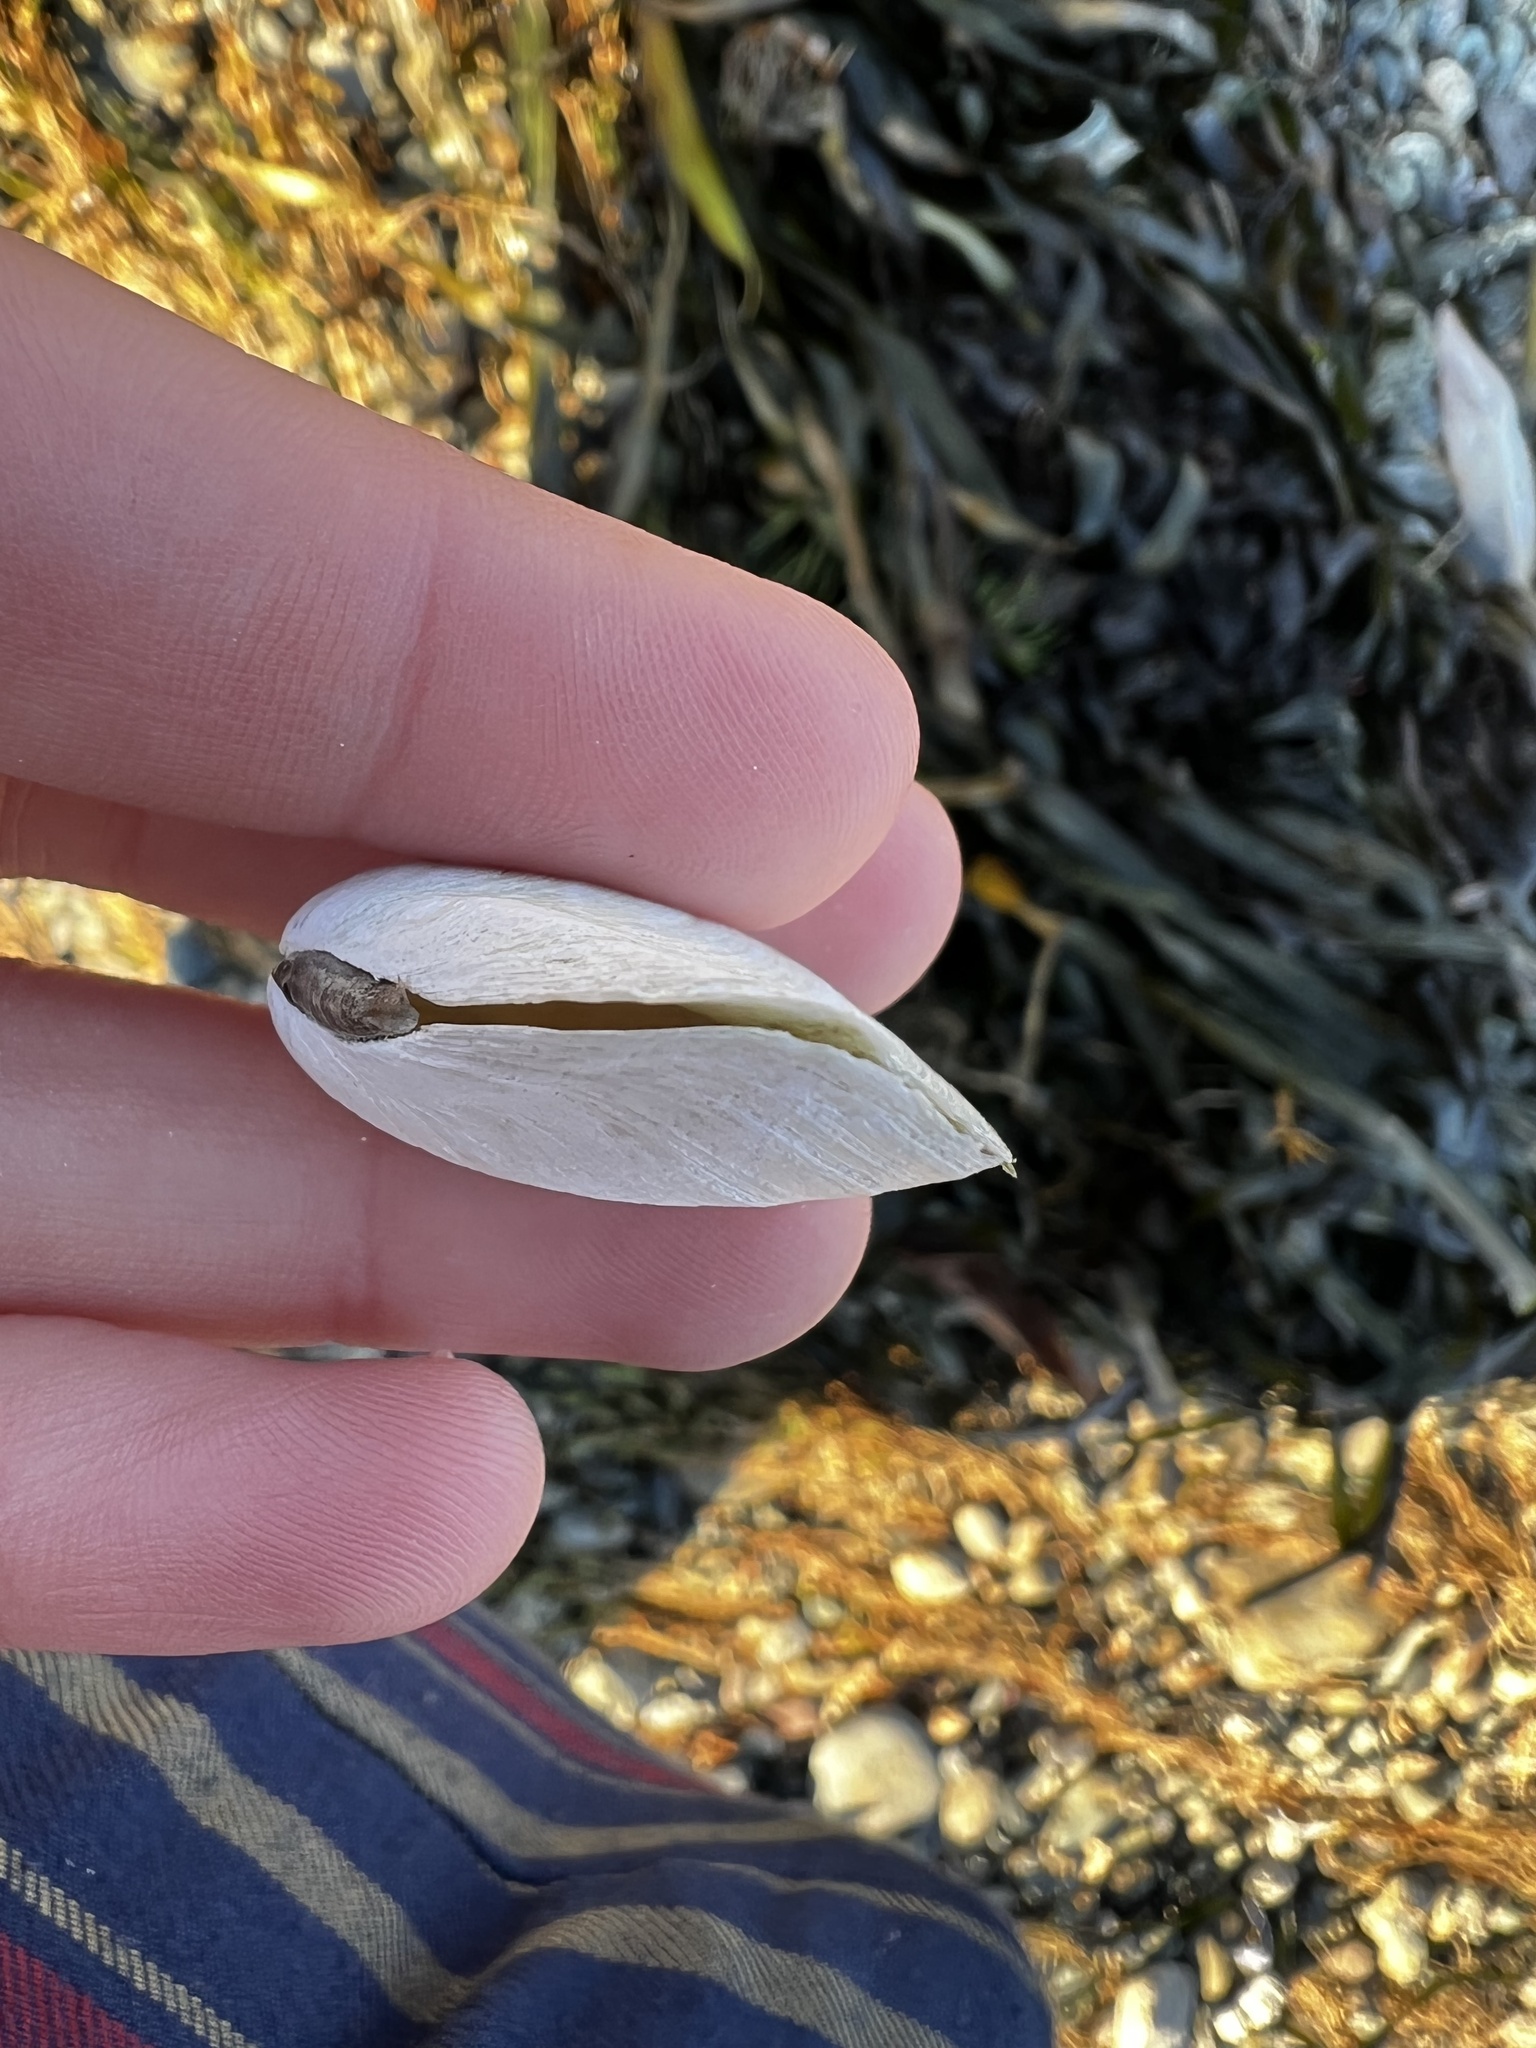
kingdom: Animalia
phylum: Mollusca
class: Bivalvia
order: Cardiida
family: Tellinidae
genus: Macoma
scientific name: Macoma nasuta
